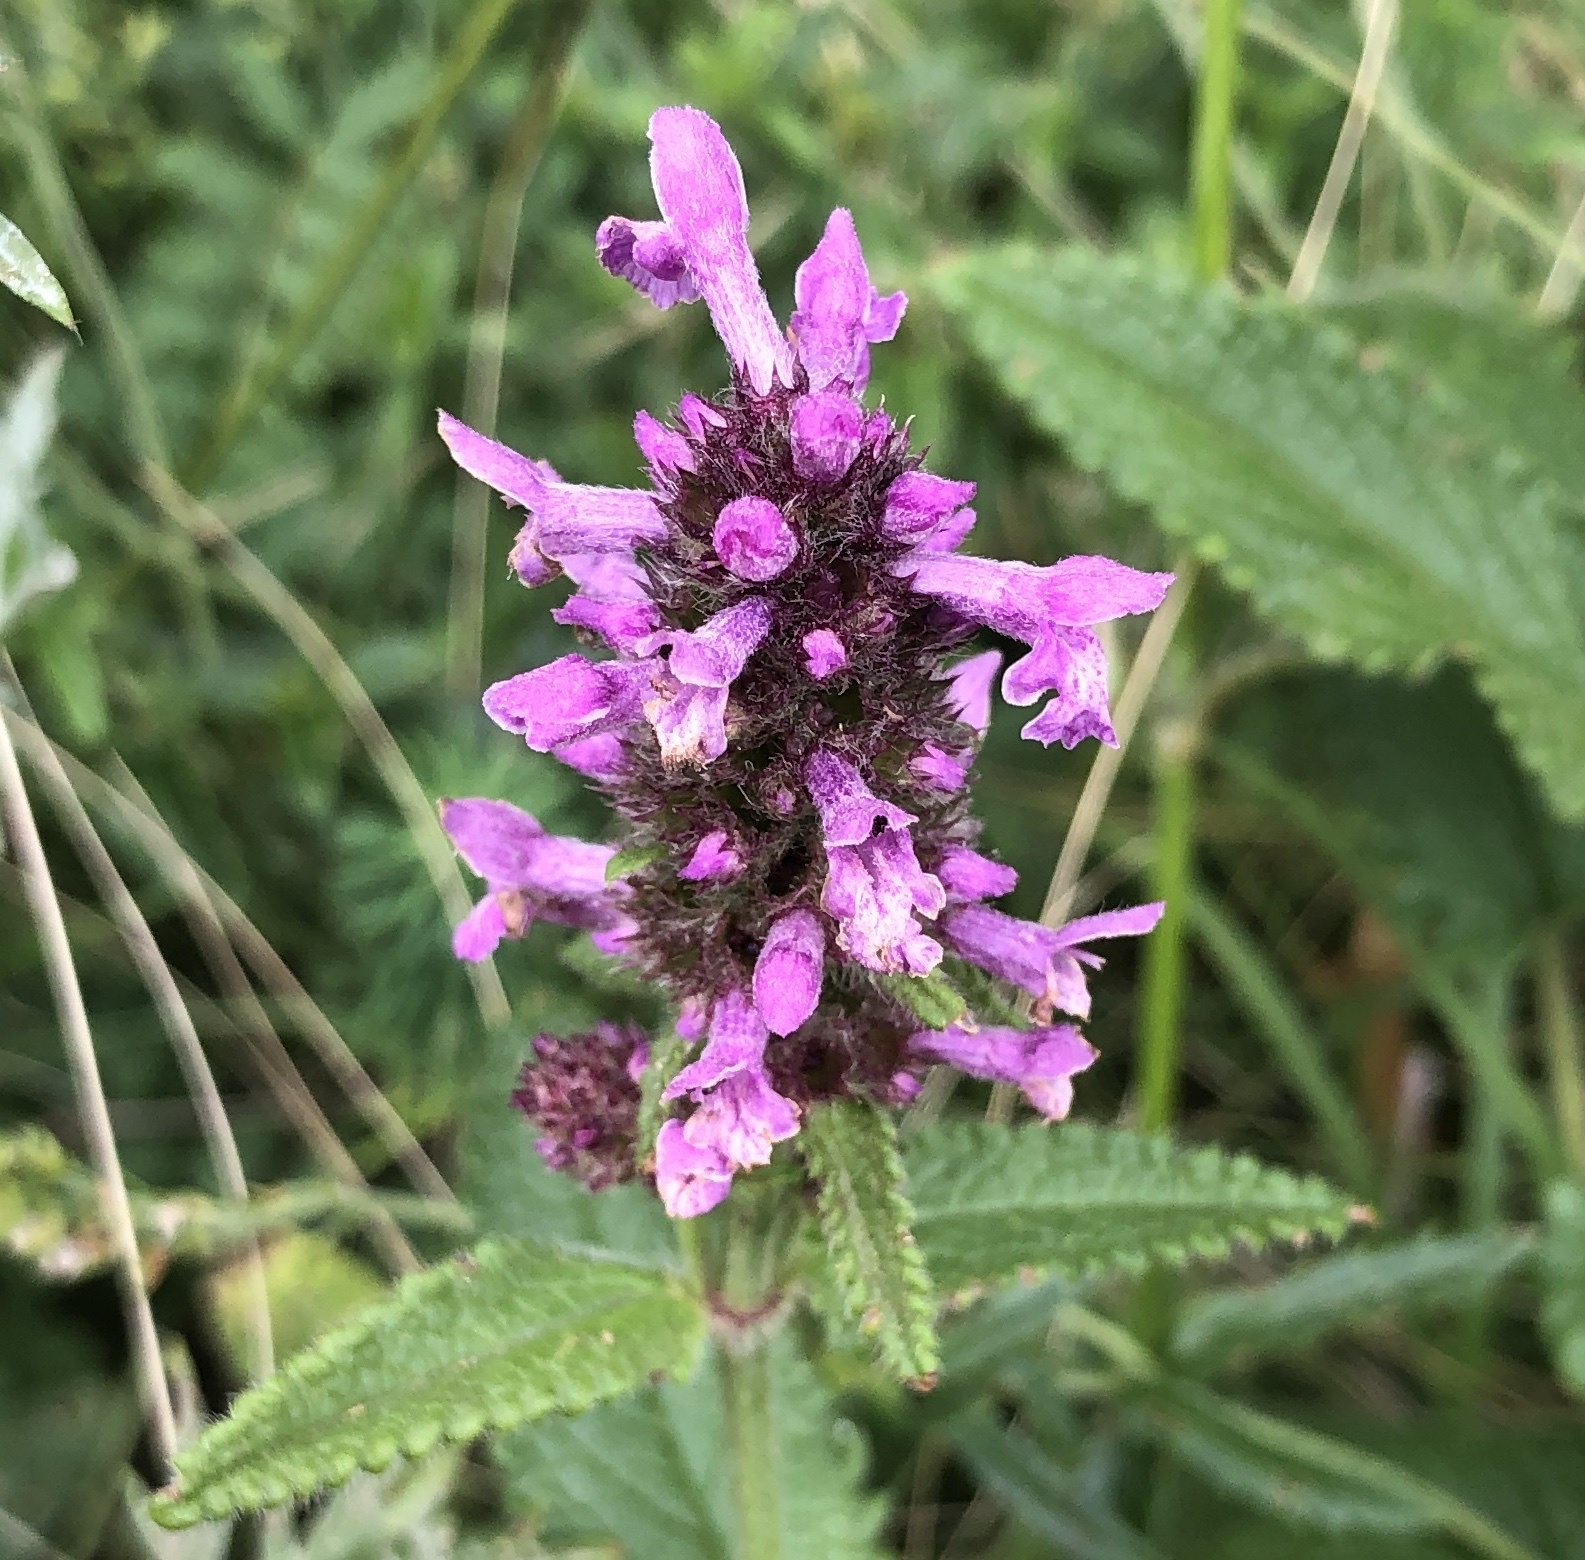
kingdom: Plantae
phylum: Tracheophyta
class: Magnoliopsida
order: Lamiales
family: Lamiaceae
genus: Betonica
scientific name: Betonica officinalis
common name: Bishop's-wort
